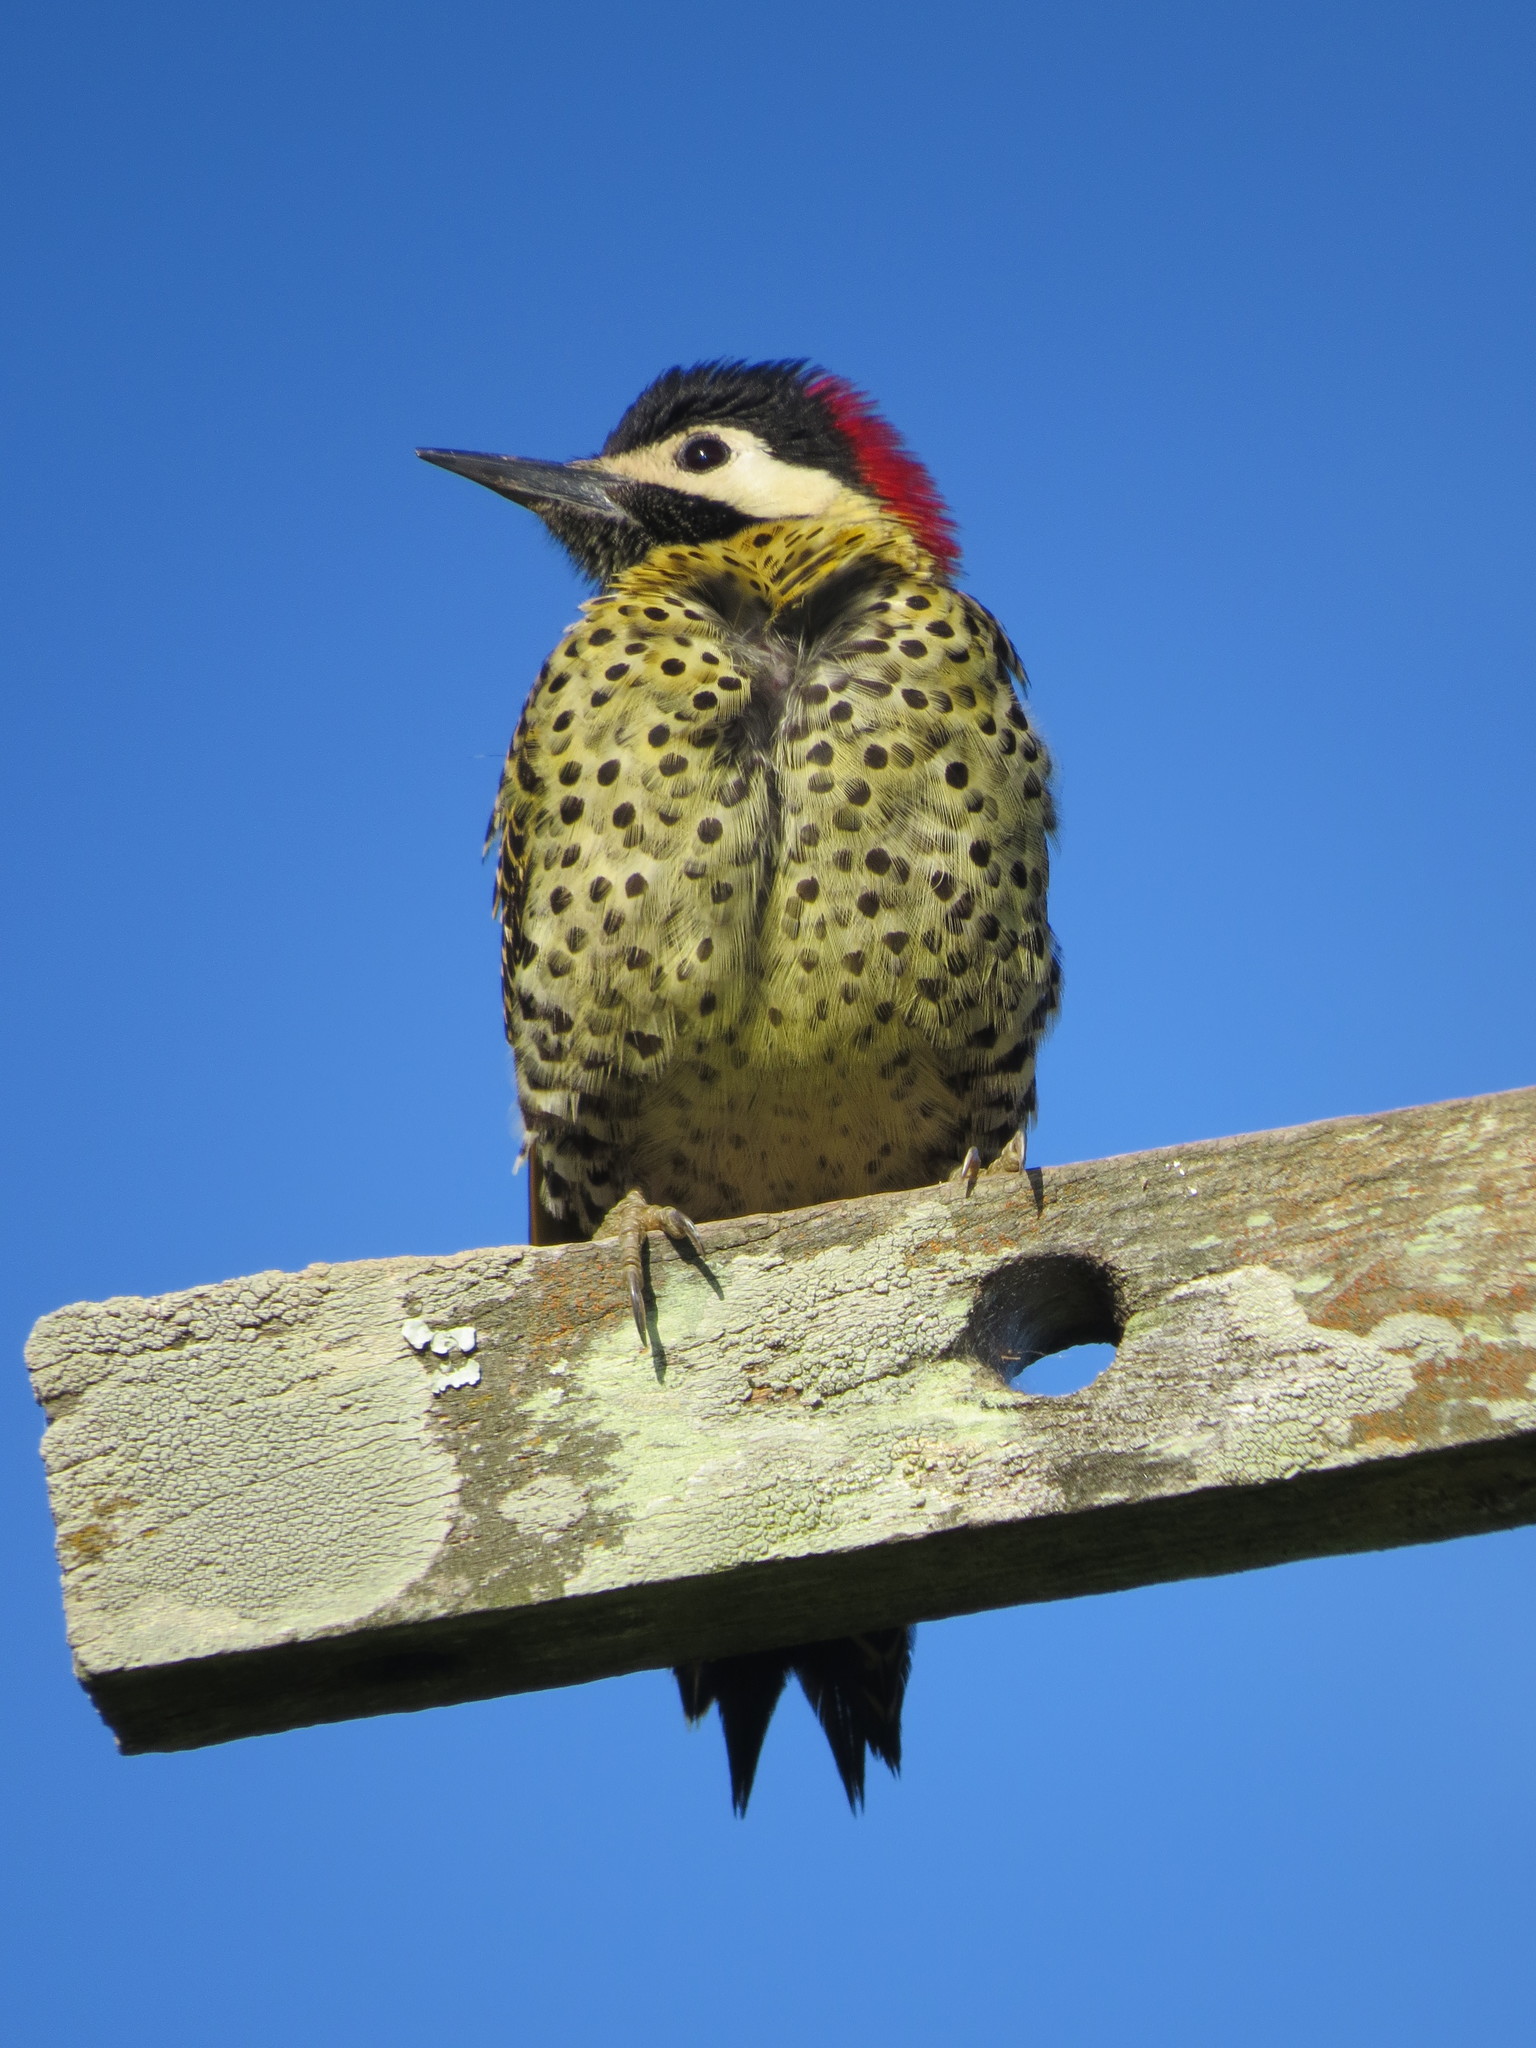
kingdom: Animalia
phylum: Chordata
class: Aves
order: Piciformes
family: Picidae
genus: Colaptes
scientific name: Colaptes melanochloros
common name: Green-barred woodpecker
